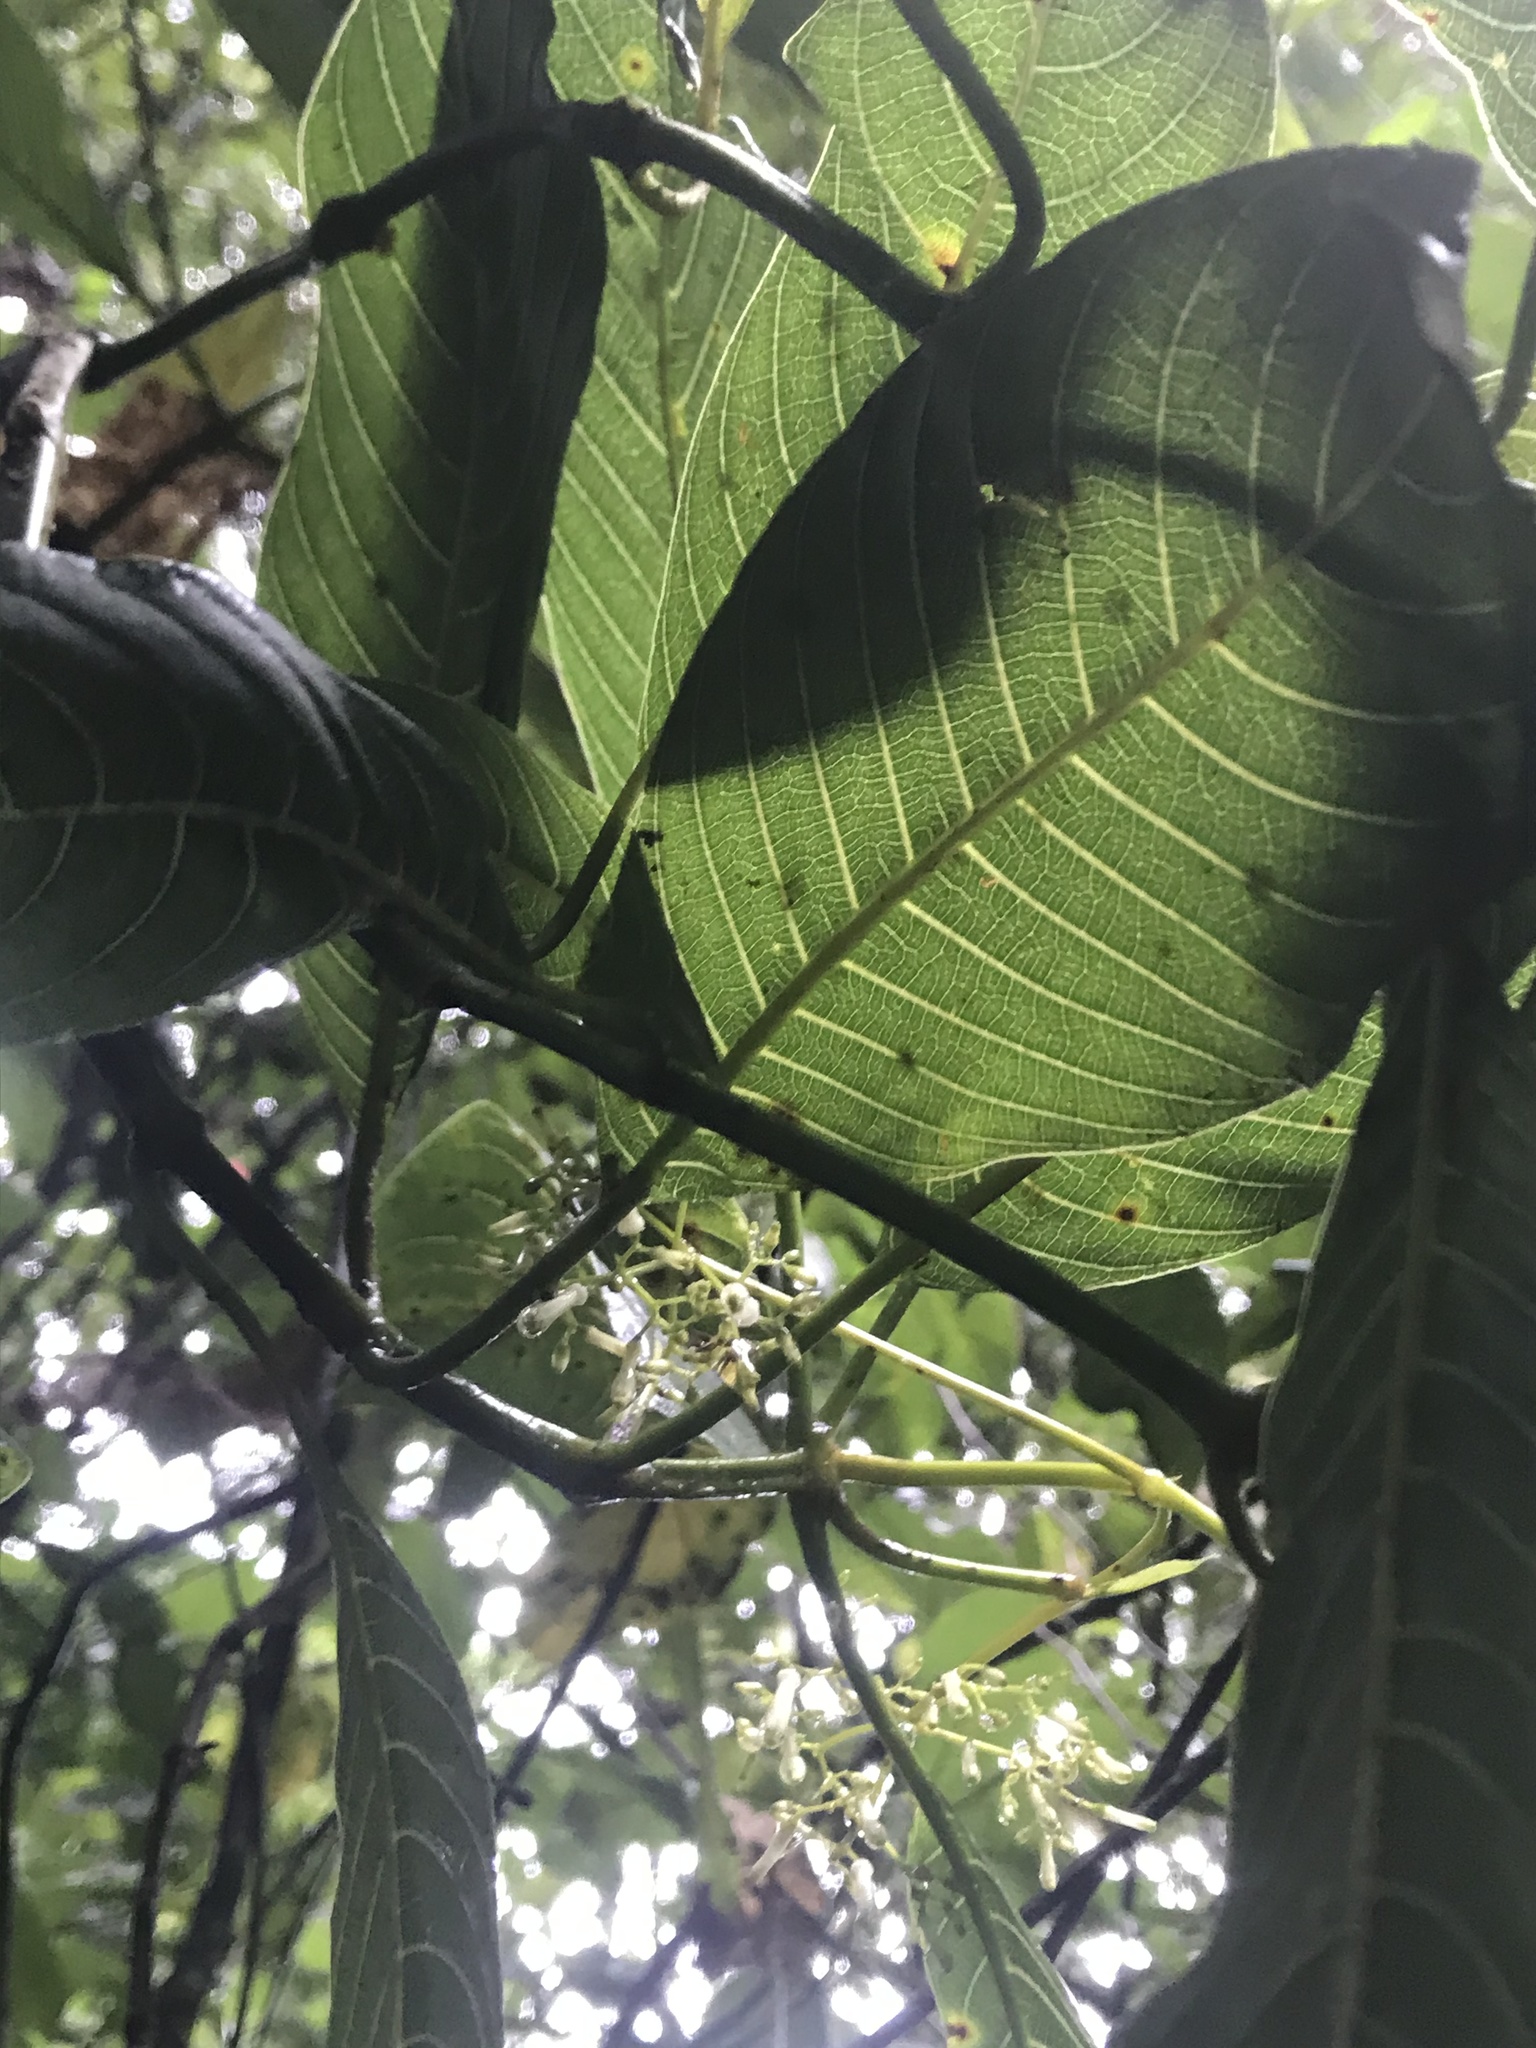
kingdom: Plantae
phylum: Tracheophyta
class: Magnoliopsida
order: Gentianales
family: Rubiaceae
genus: Palicourea
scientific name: Palicourea lineariflora
